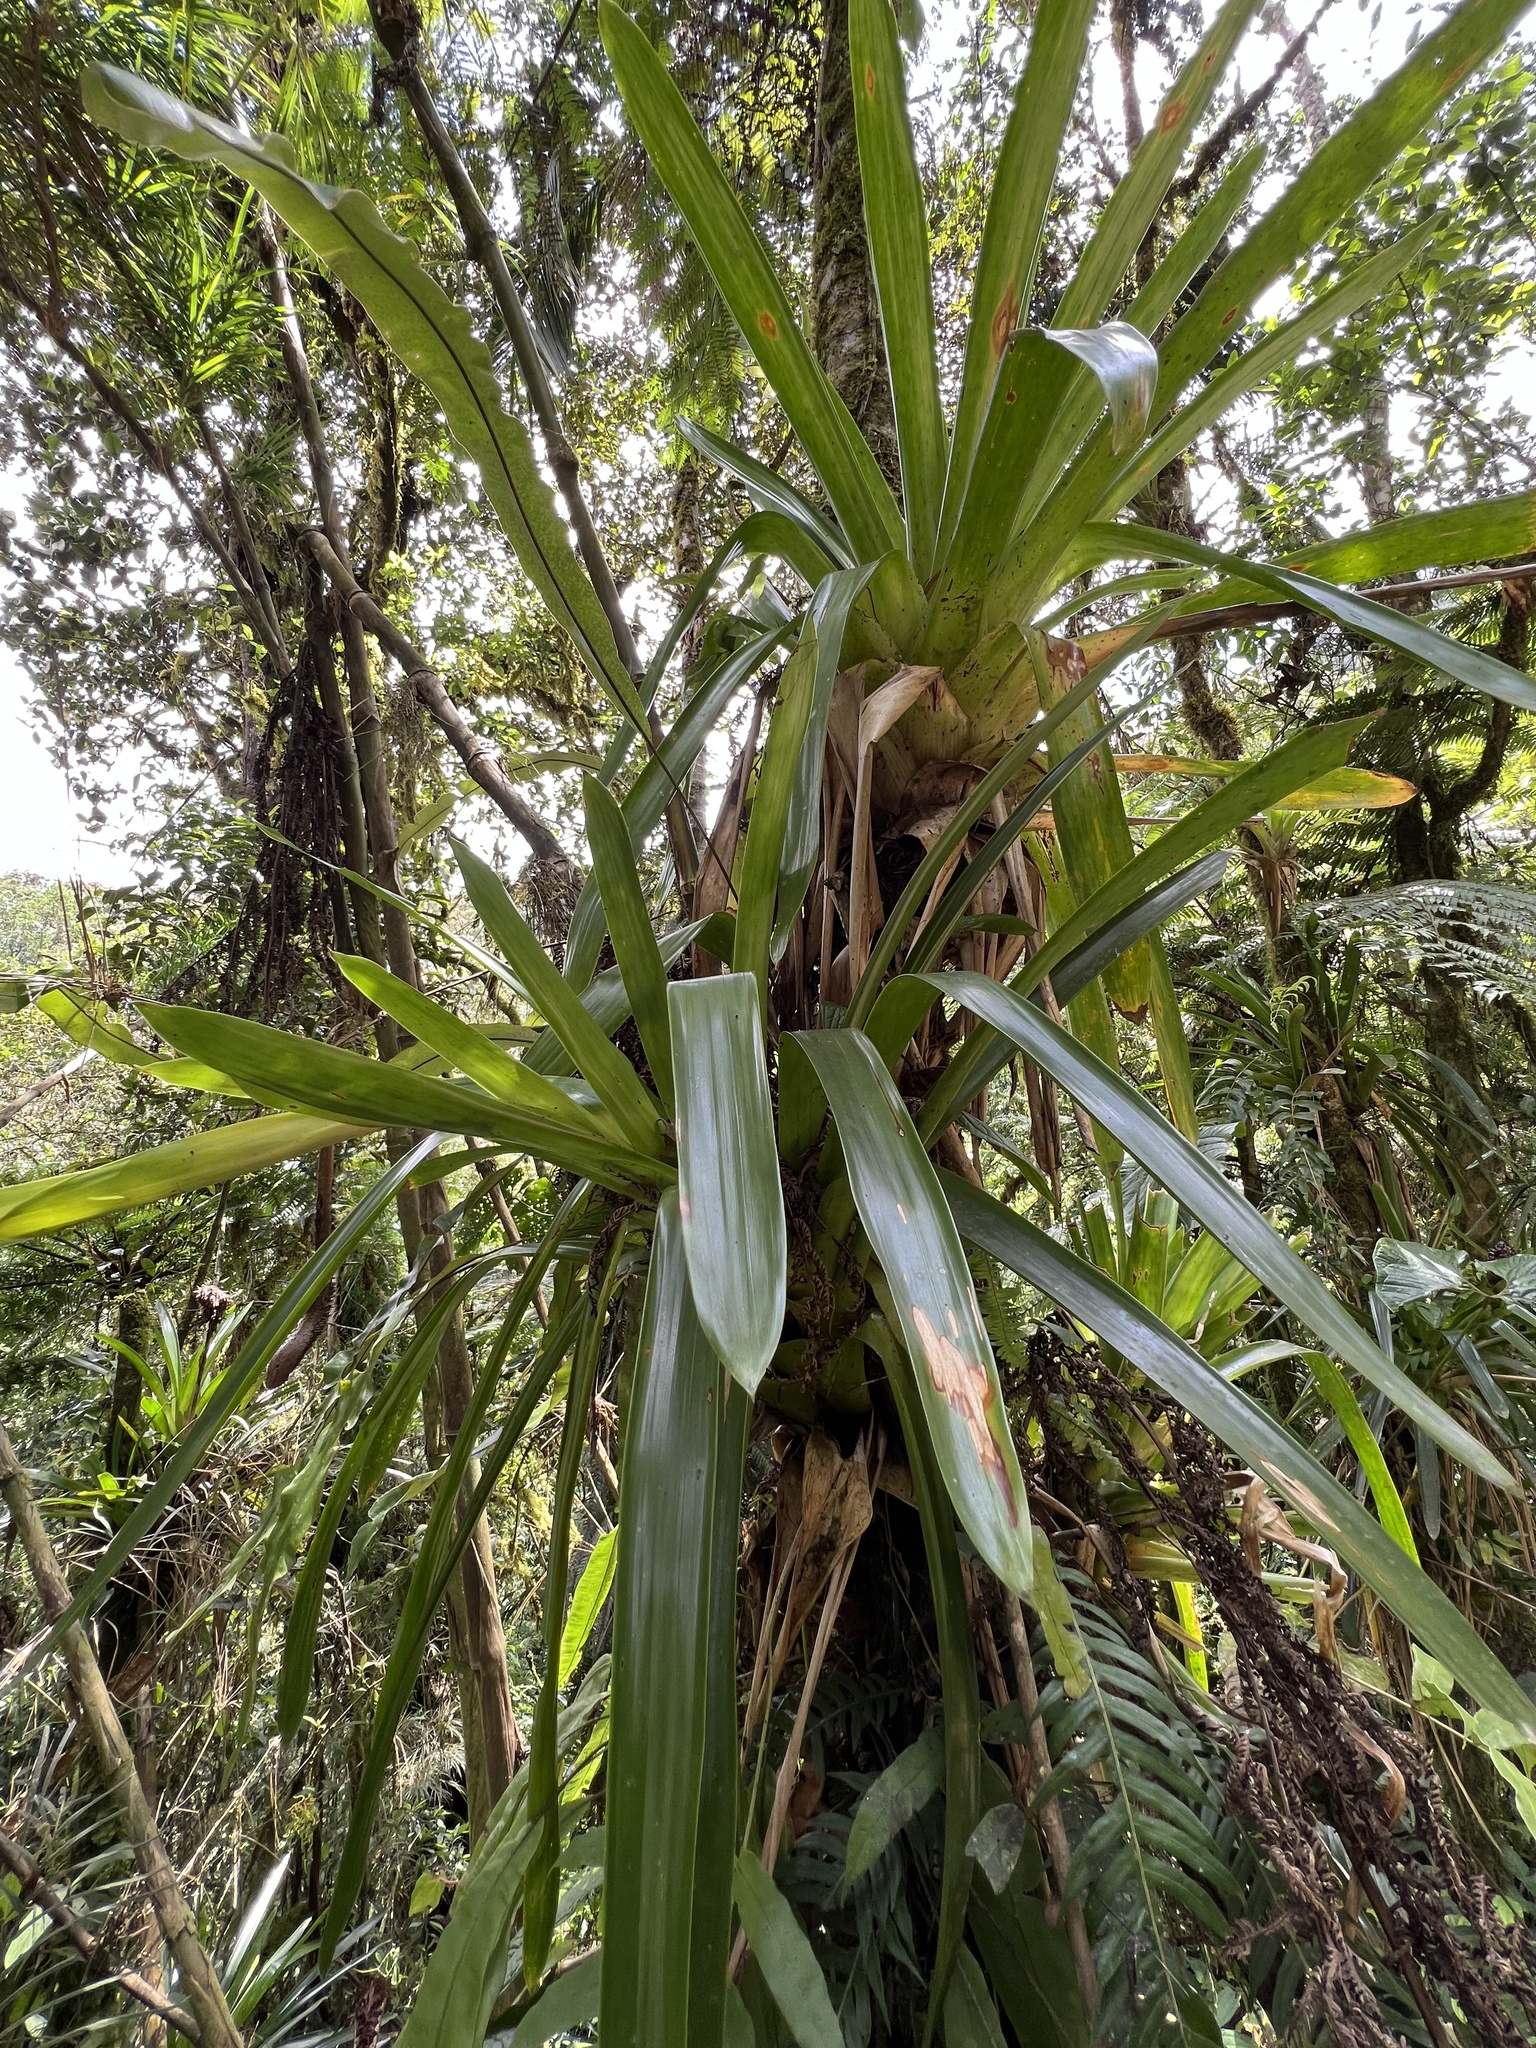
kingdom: Plantae
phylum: Tracheophyta
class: Liliopsida
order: Poales
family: Bromeliaceae
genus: Guzmania
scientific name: Guzmania mitis
